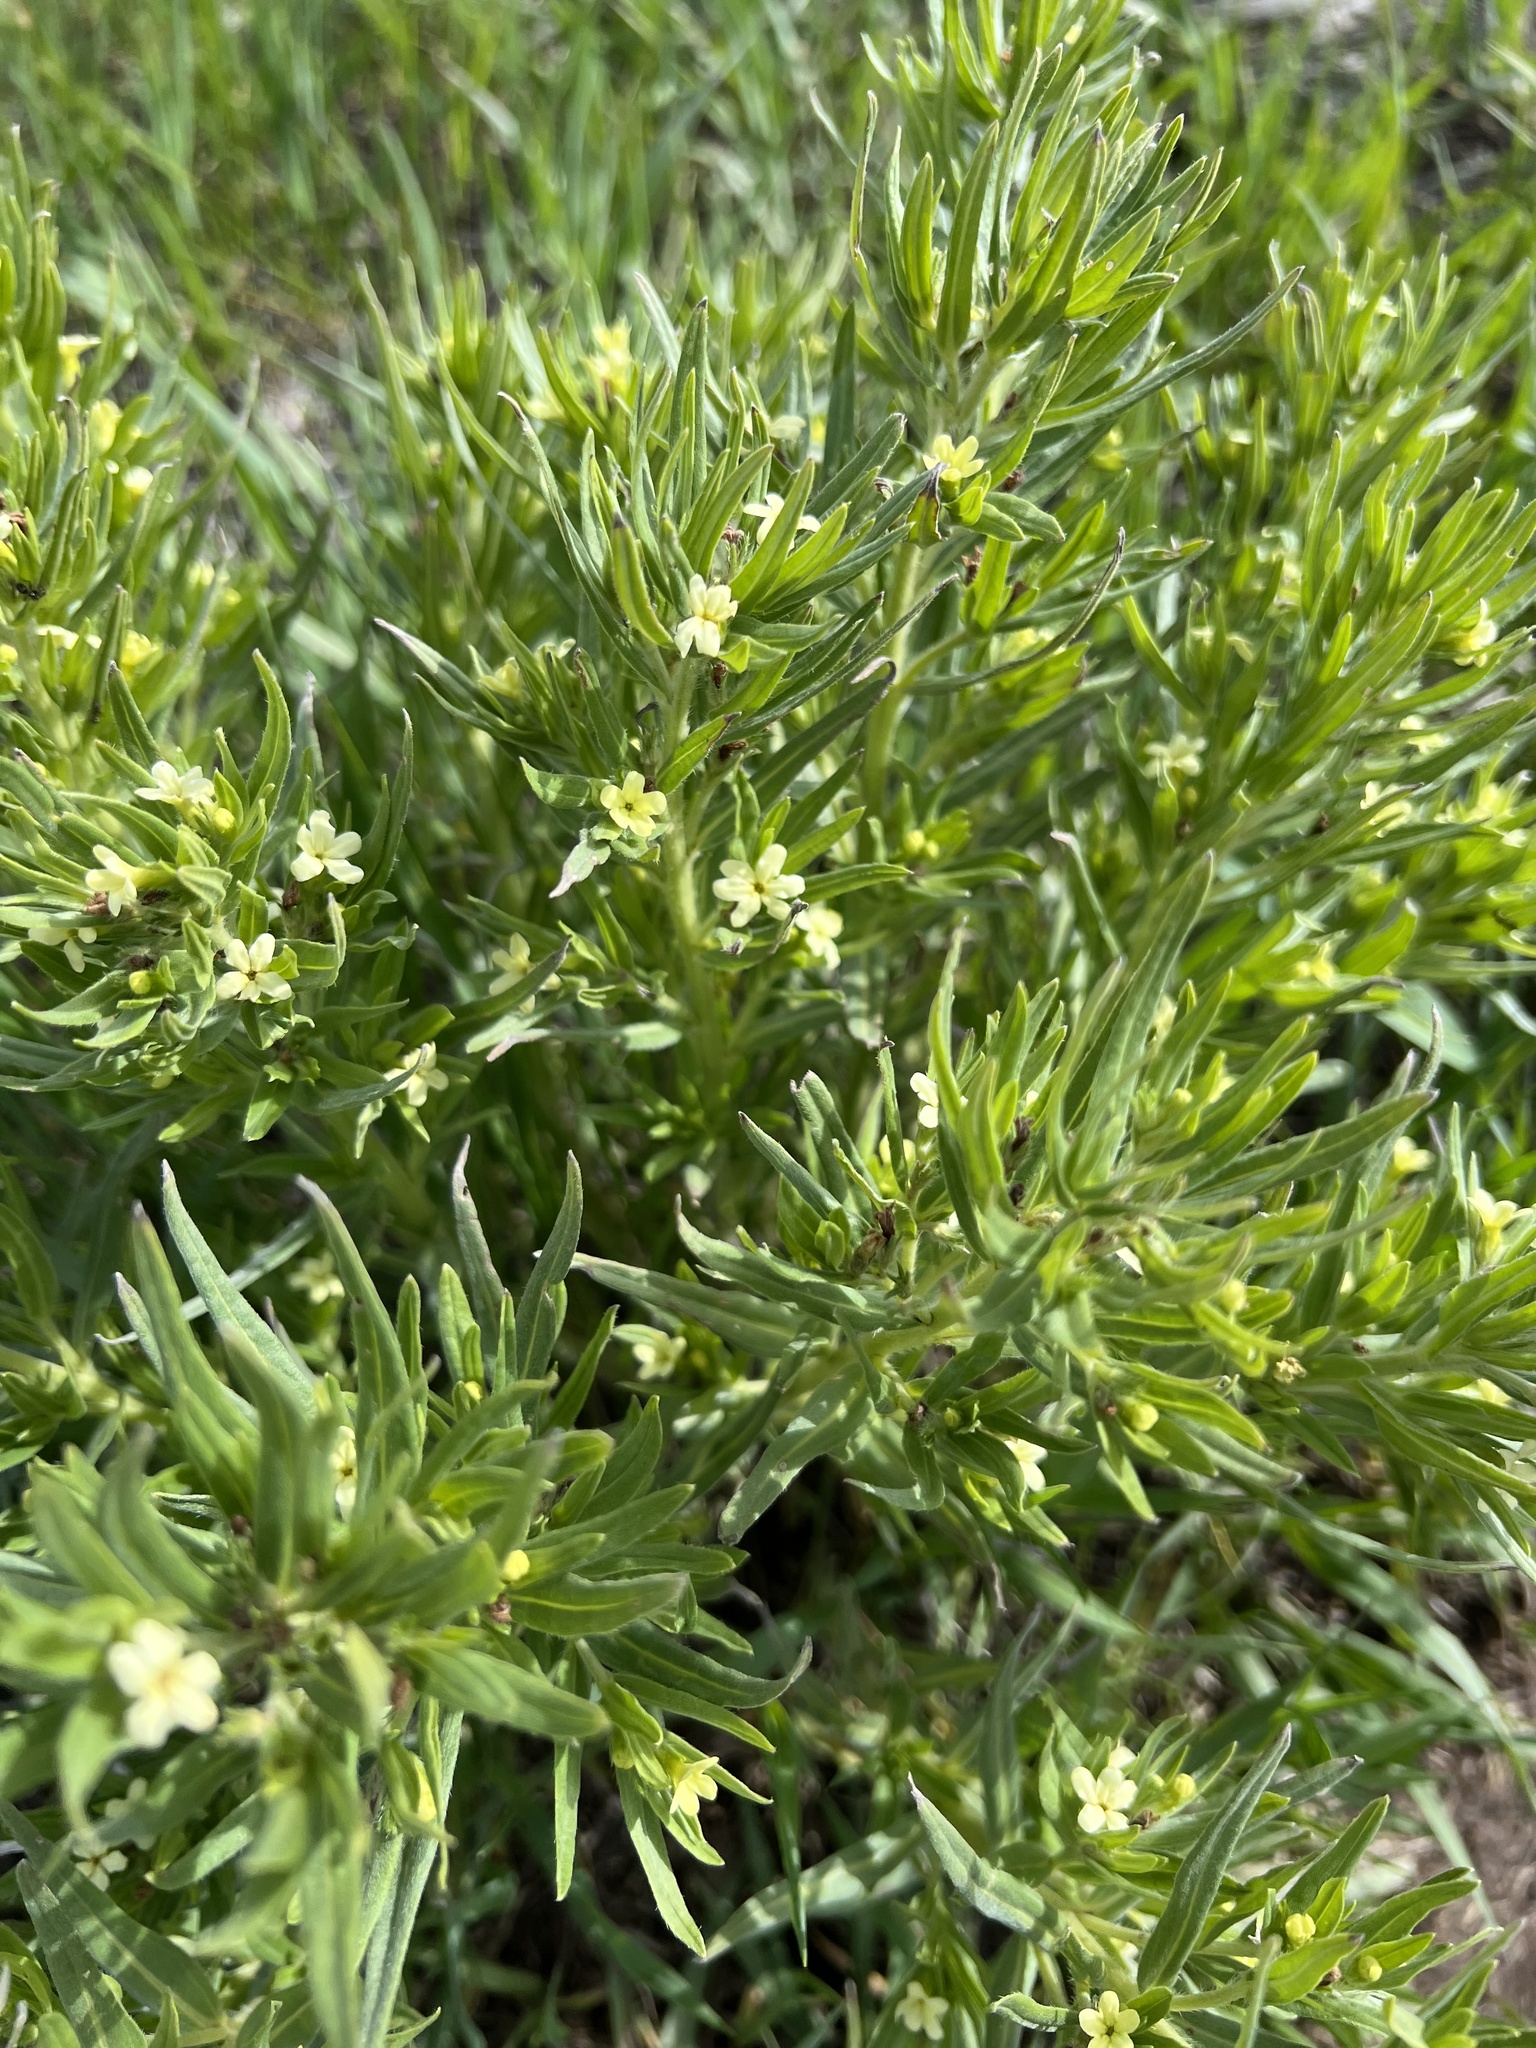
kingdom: Plantae
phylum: Tracheophyta
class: Magnoliopsida
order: Boraginales
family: Boraginaceae
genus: Lithospermum
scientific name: Lithospermum ruderale
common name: Western gromwell
